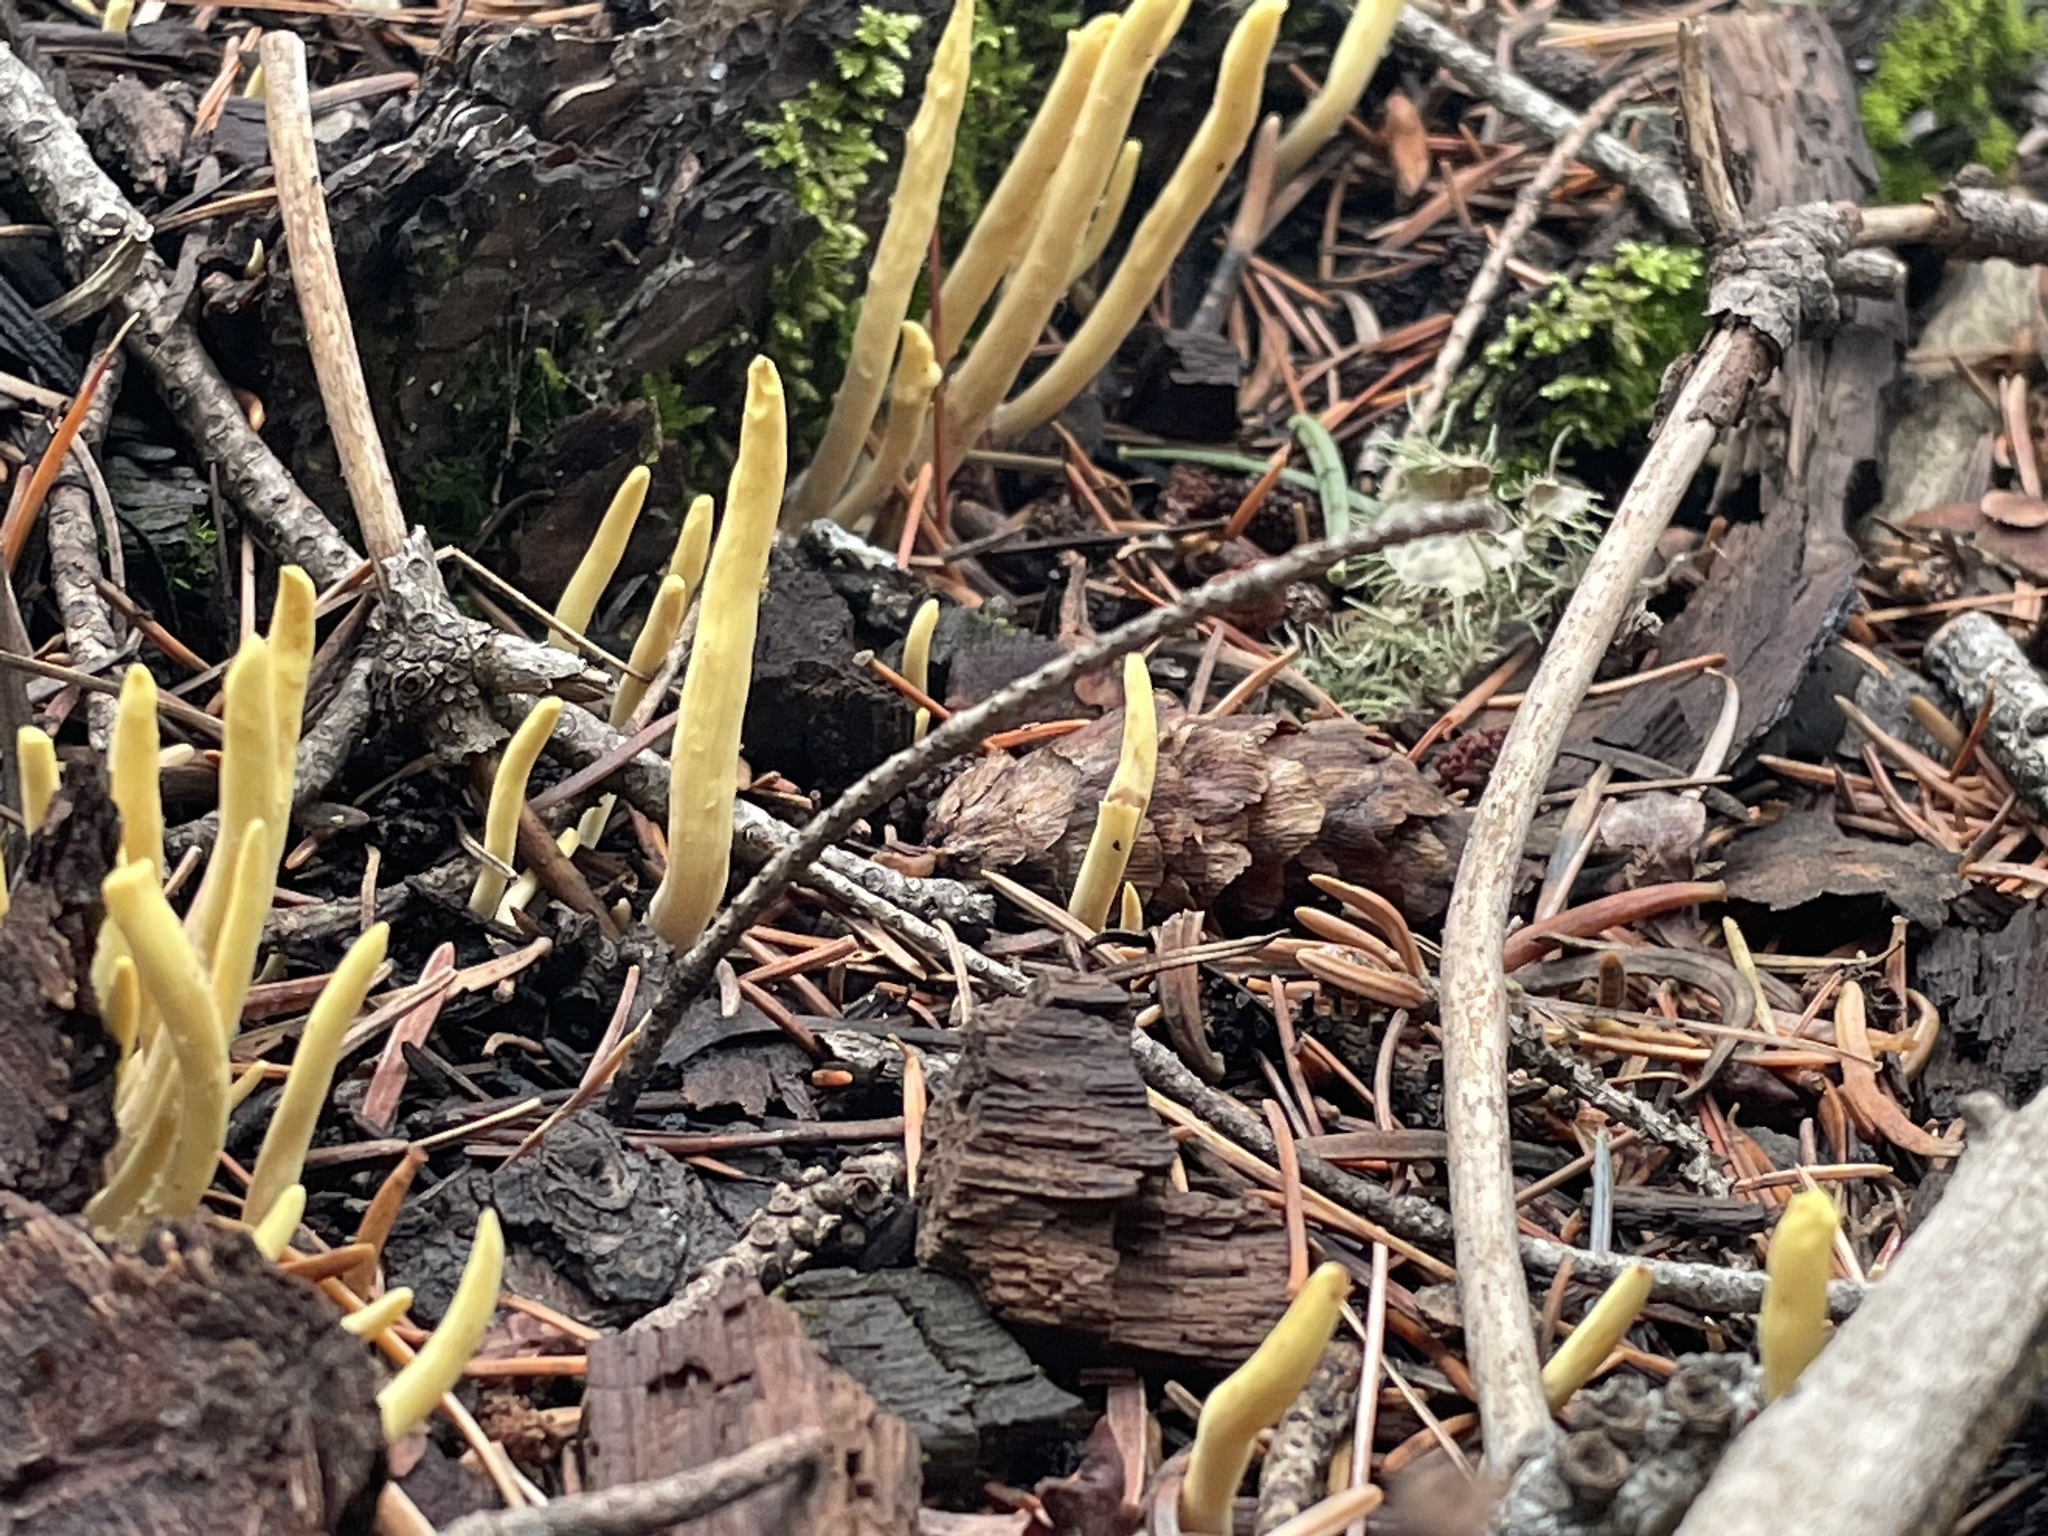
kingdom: Fungi
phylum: Basidiomycota
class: Agaricomycetes
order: Gomphales
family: Clavariadelphaceae
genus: Clavariadelphus
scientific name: Clavariadelphus sachalinensis
